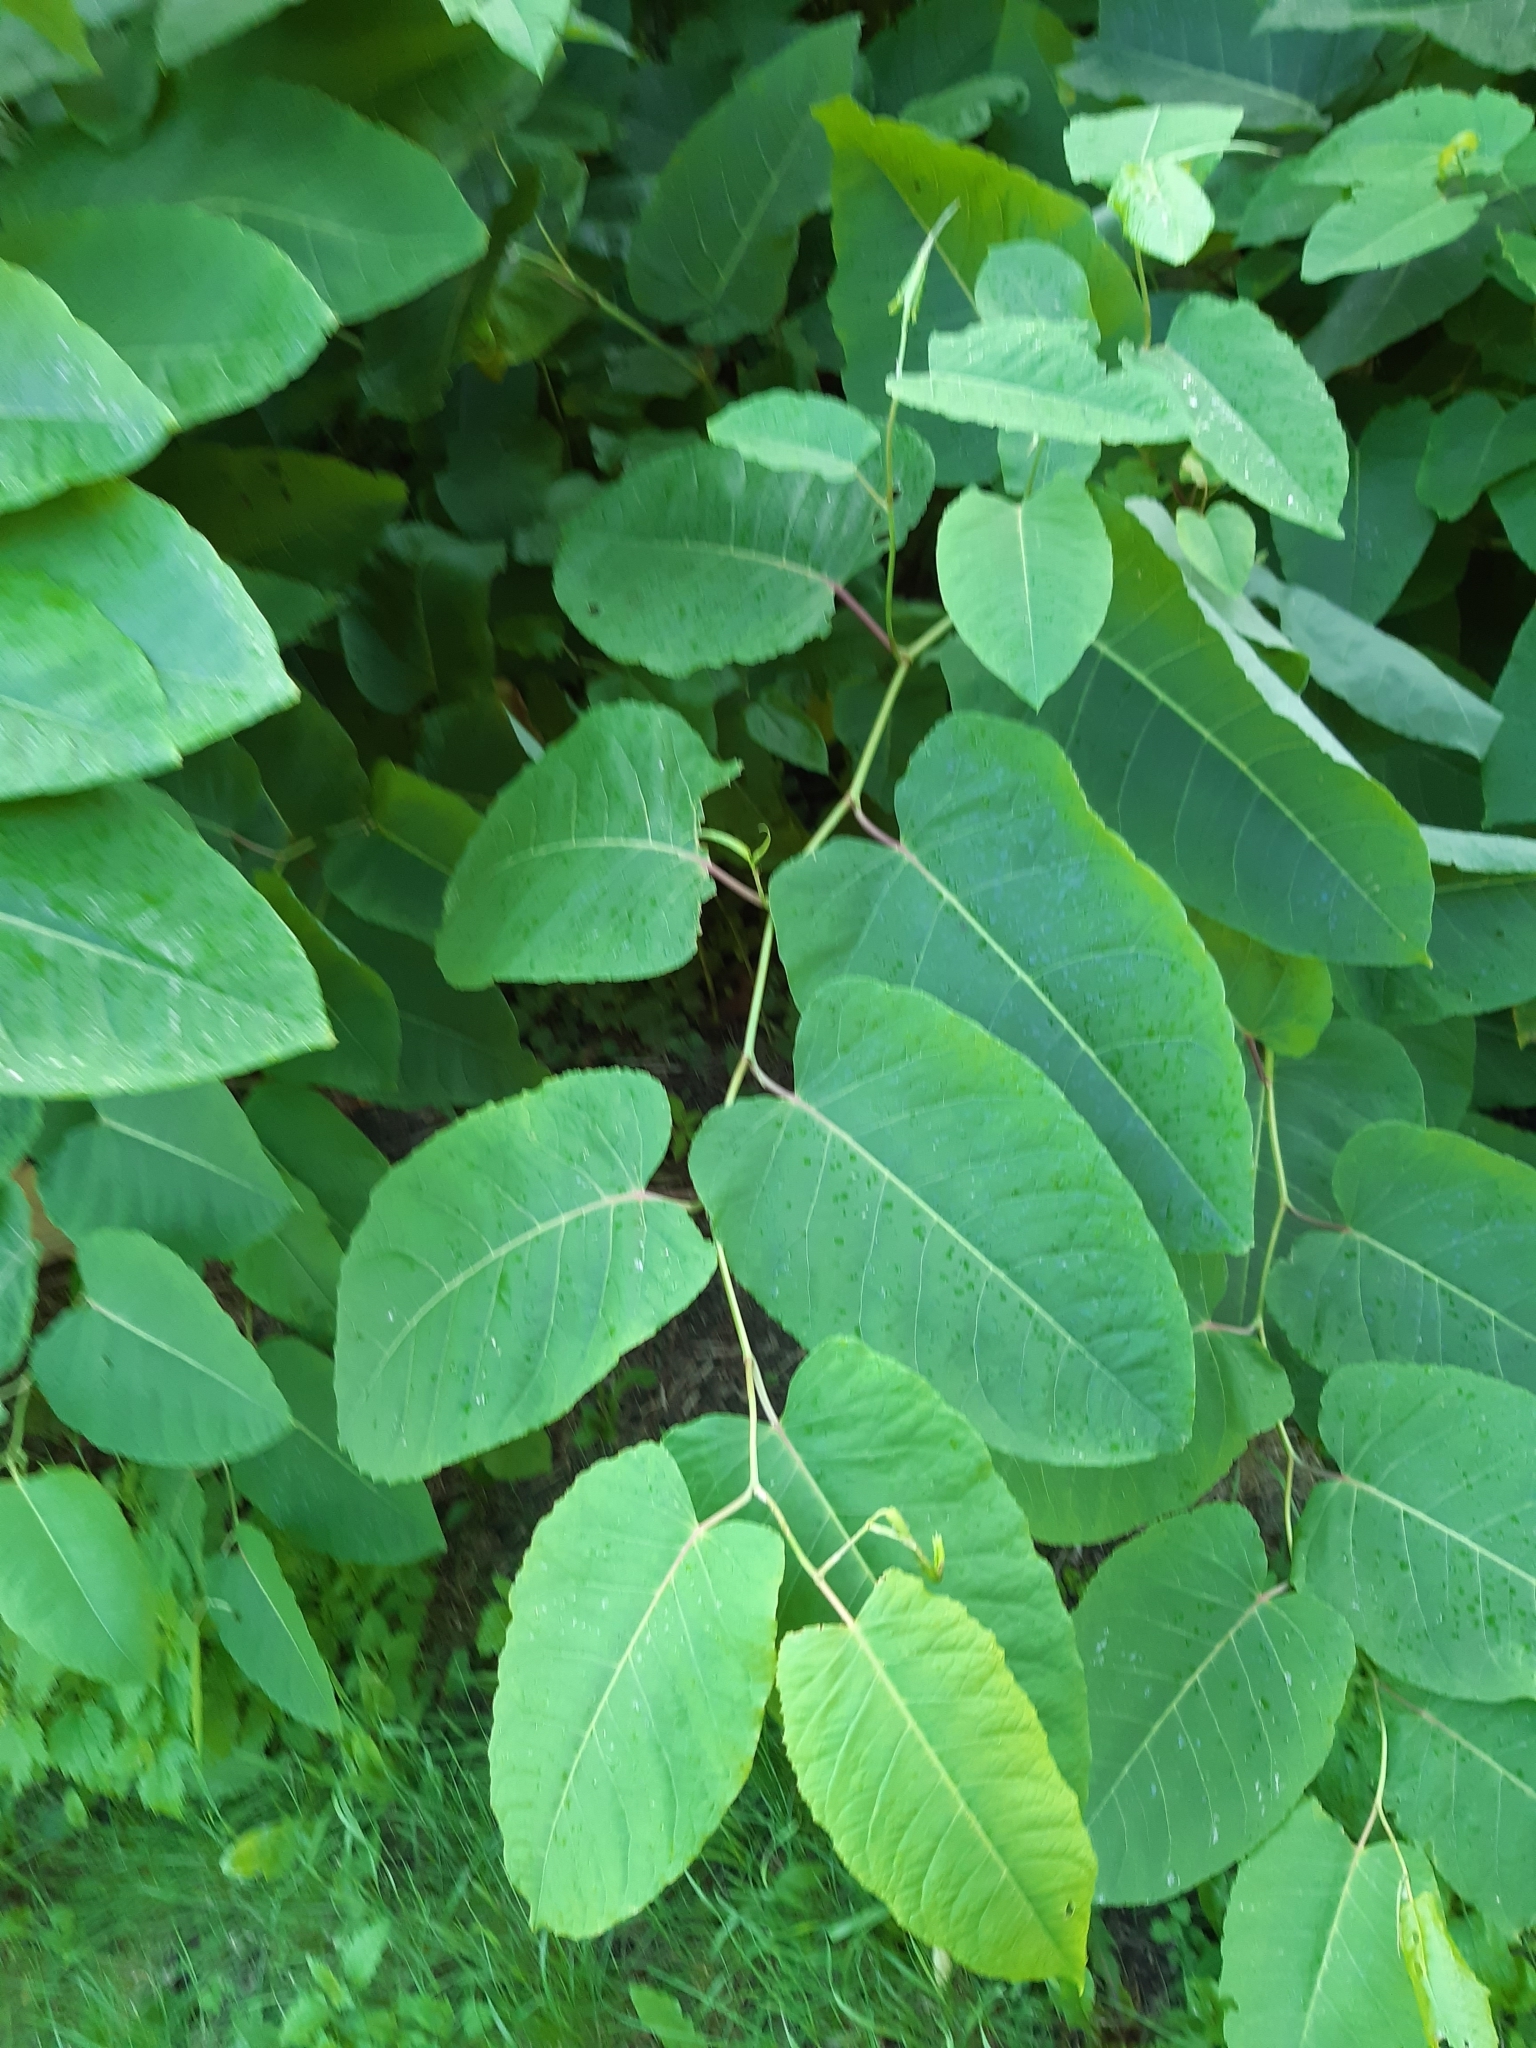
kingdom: Plantae
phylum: Tracheophyta
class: Magnoliopsida
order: Caryophyllales
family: Polygonaceae
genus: Reynoutria
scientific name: Reynoutria sachalinensis
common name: Giant knotweed
